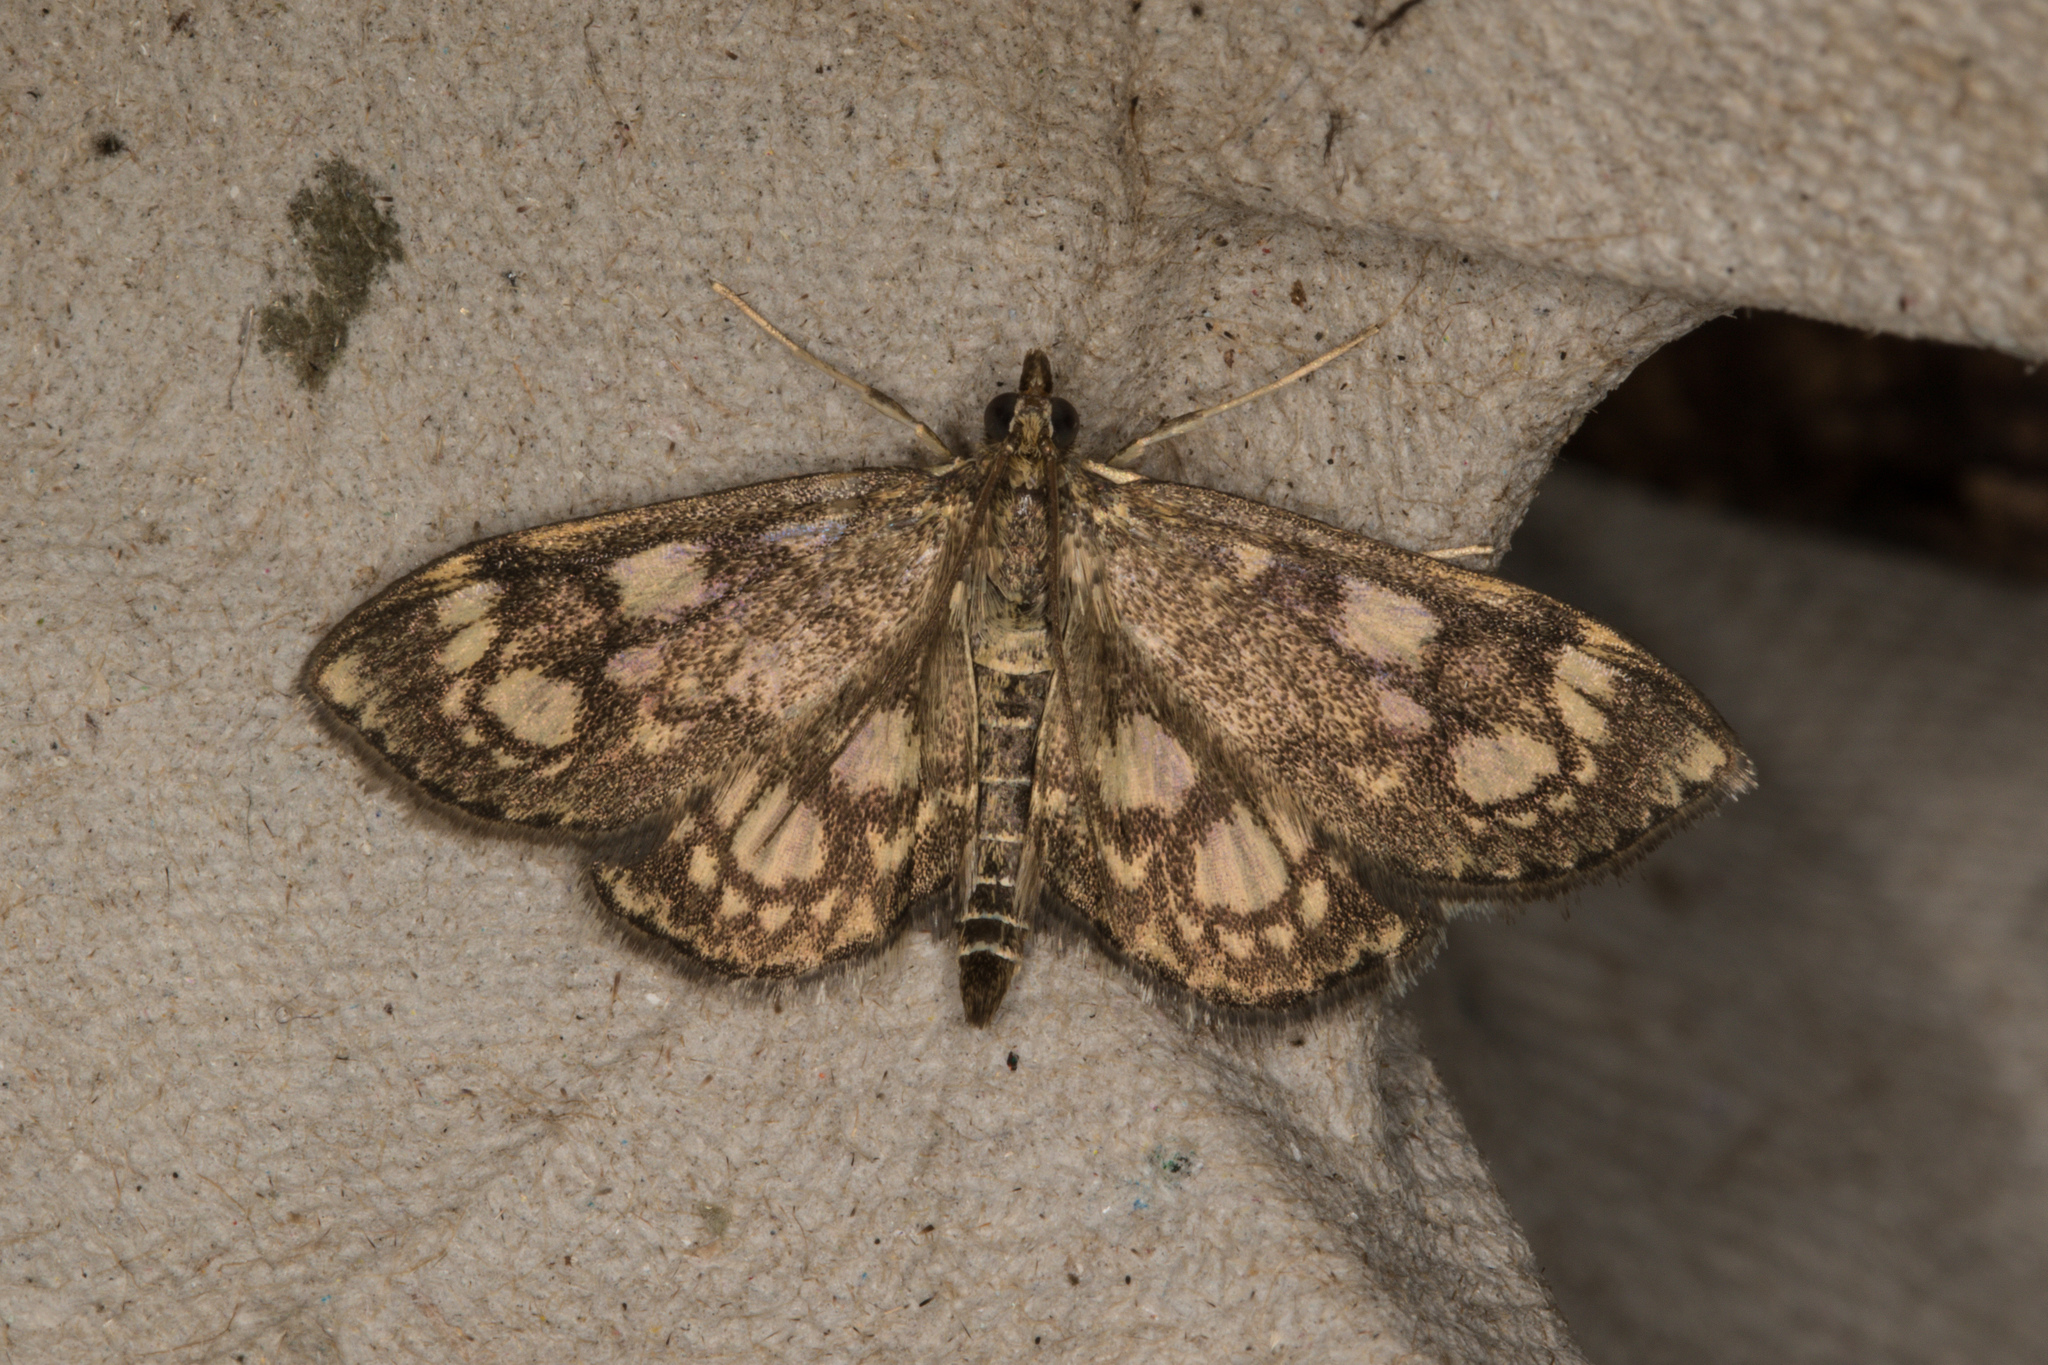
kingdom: Animalia
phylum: Arthropoda
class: Insecta
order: Lepidoptera
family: Crambidae
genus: Anania
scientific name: Anania coronata
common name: Elder pearl
